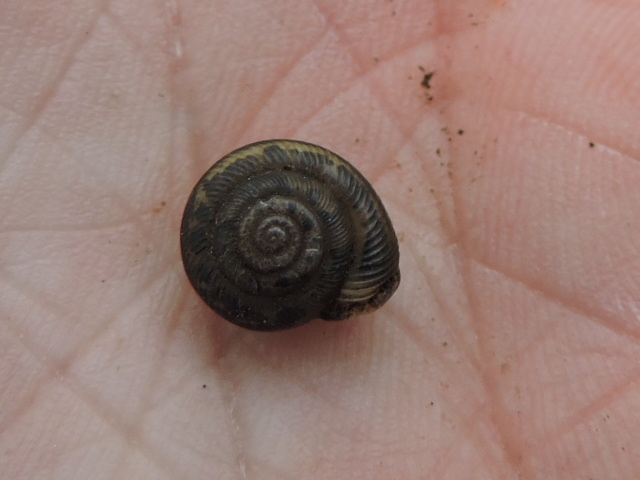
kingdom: Animalia
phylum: Mollusca
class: Gastropoda
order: Stylommatophora
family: Polygyridae
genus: Linisa
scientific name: Linisa texasiana
